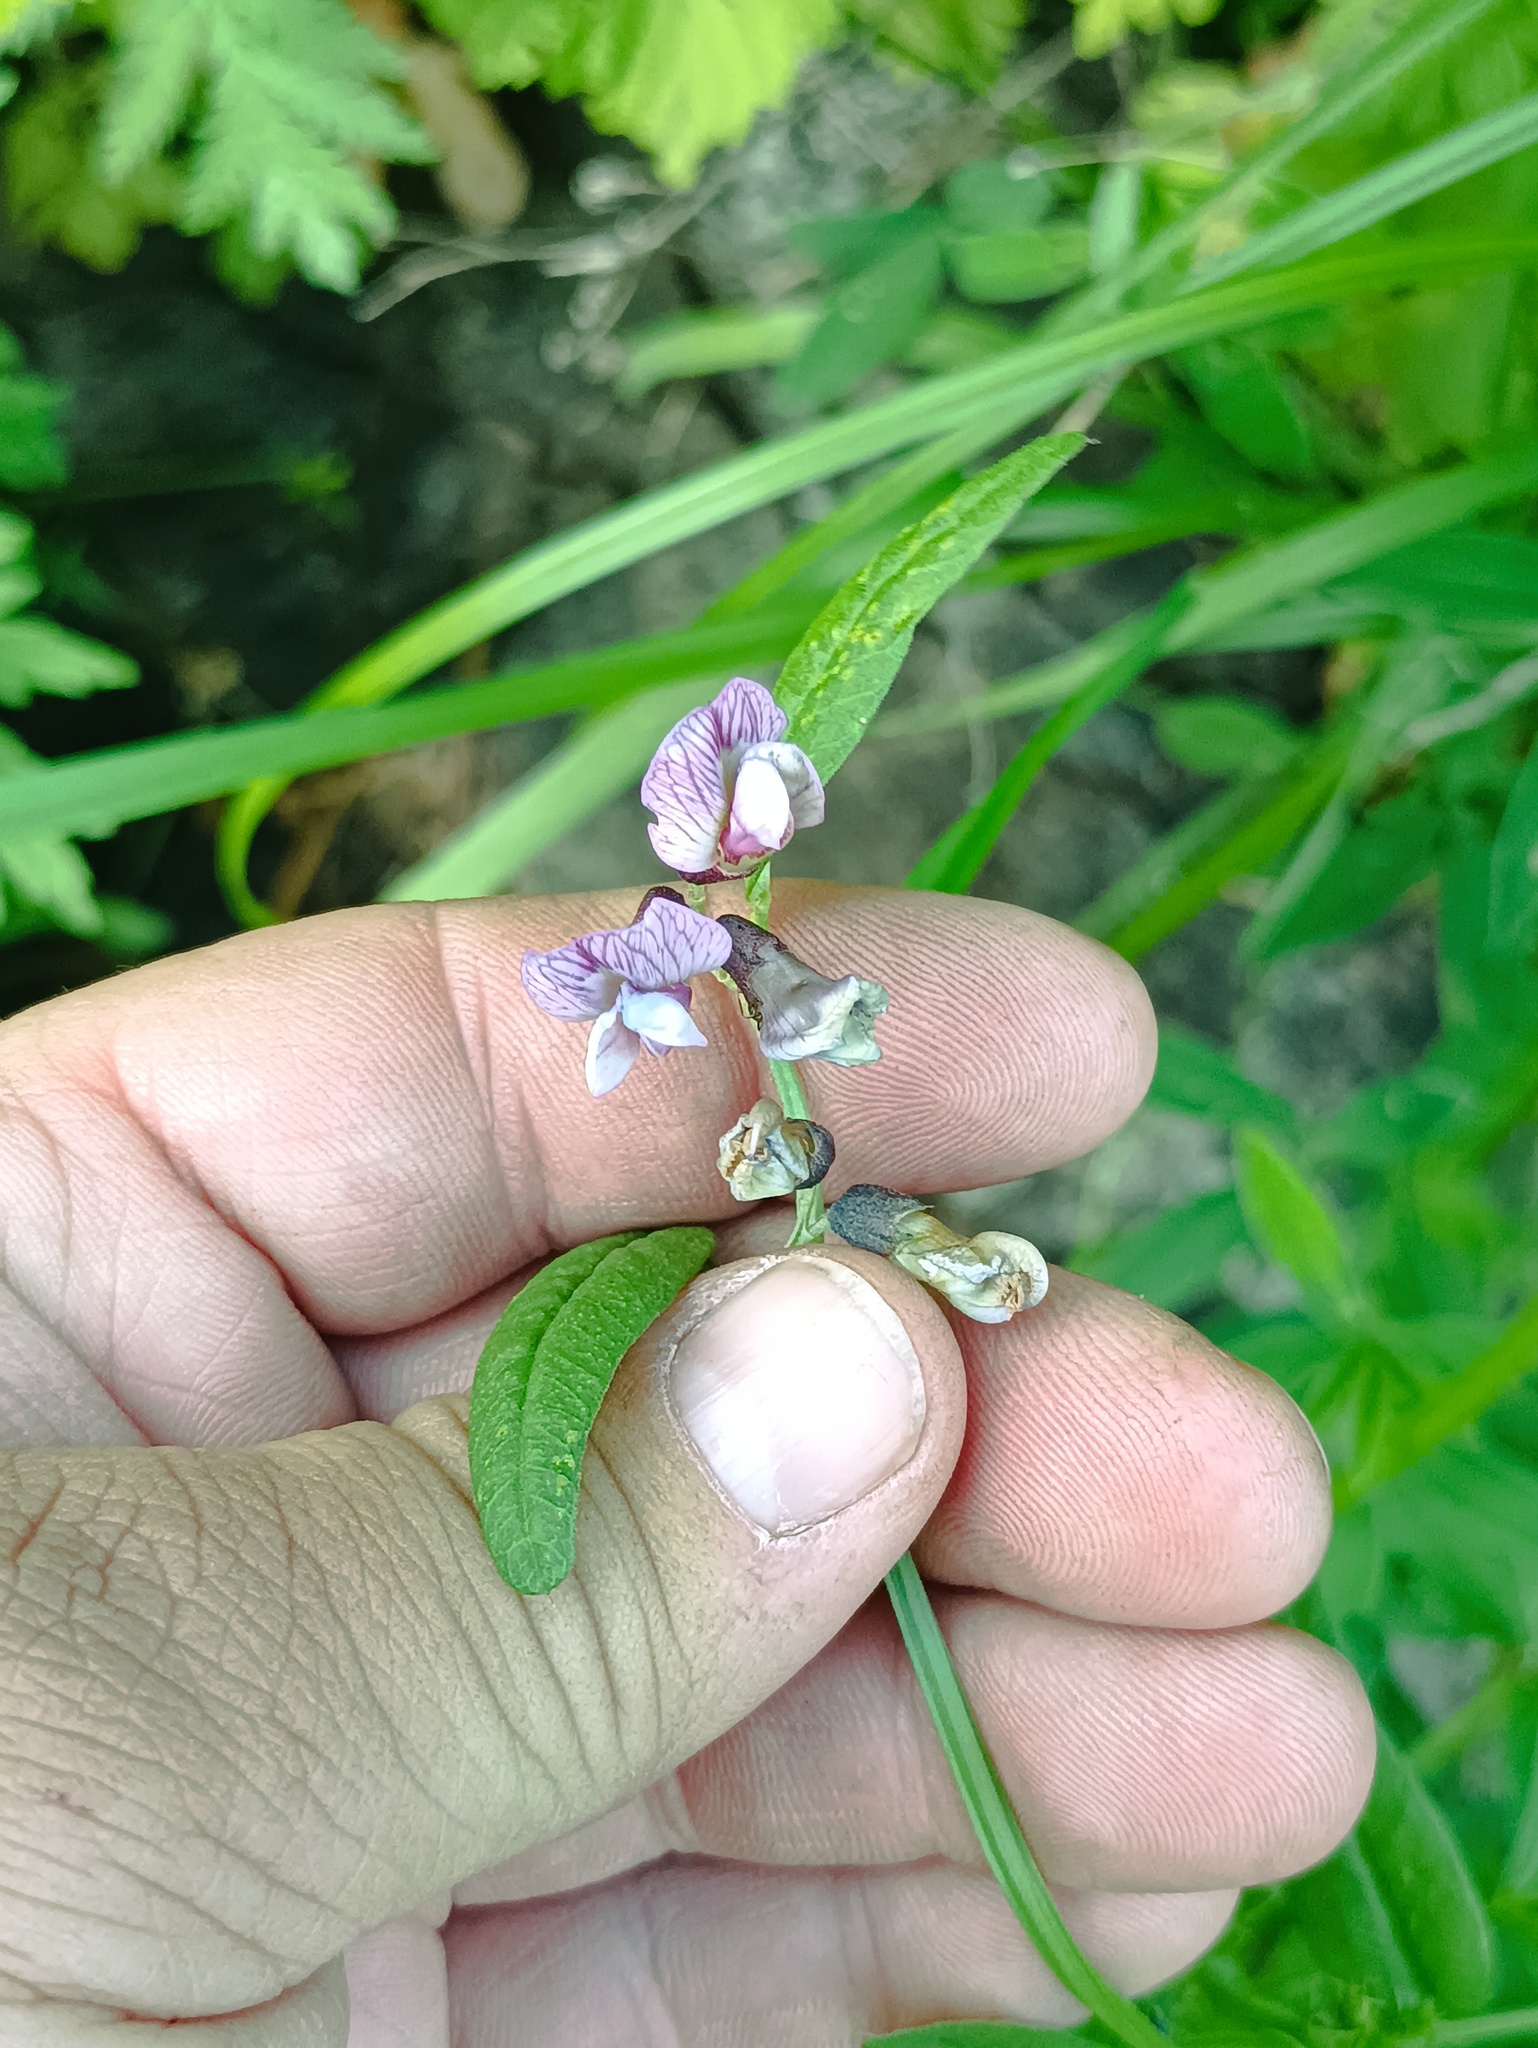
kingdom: Plantae
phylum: Tracheophyta
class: Magnoliopsida
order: Fabales
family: Fabaceae
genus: Vicia
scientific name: Vicia sepium
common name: Bush vetch
